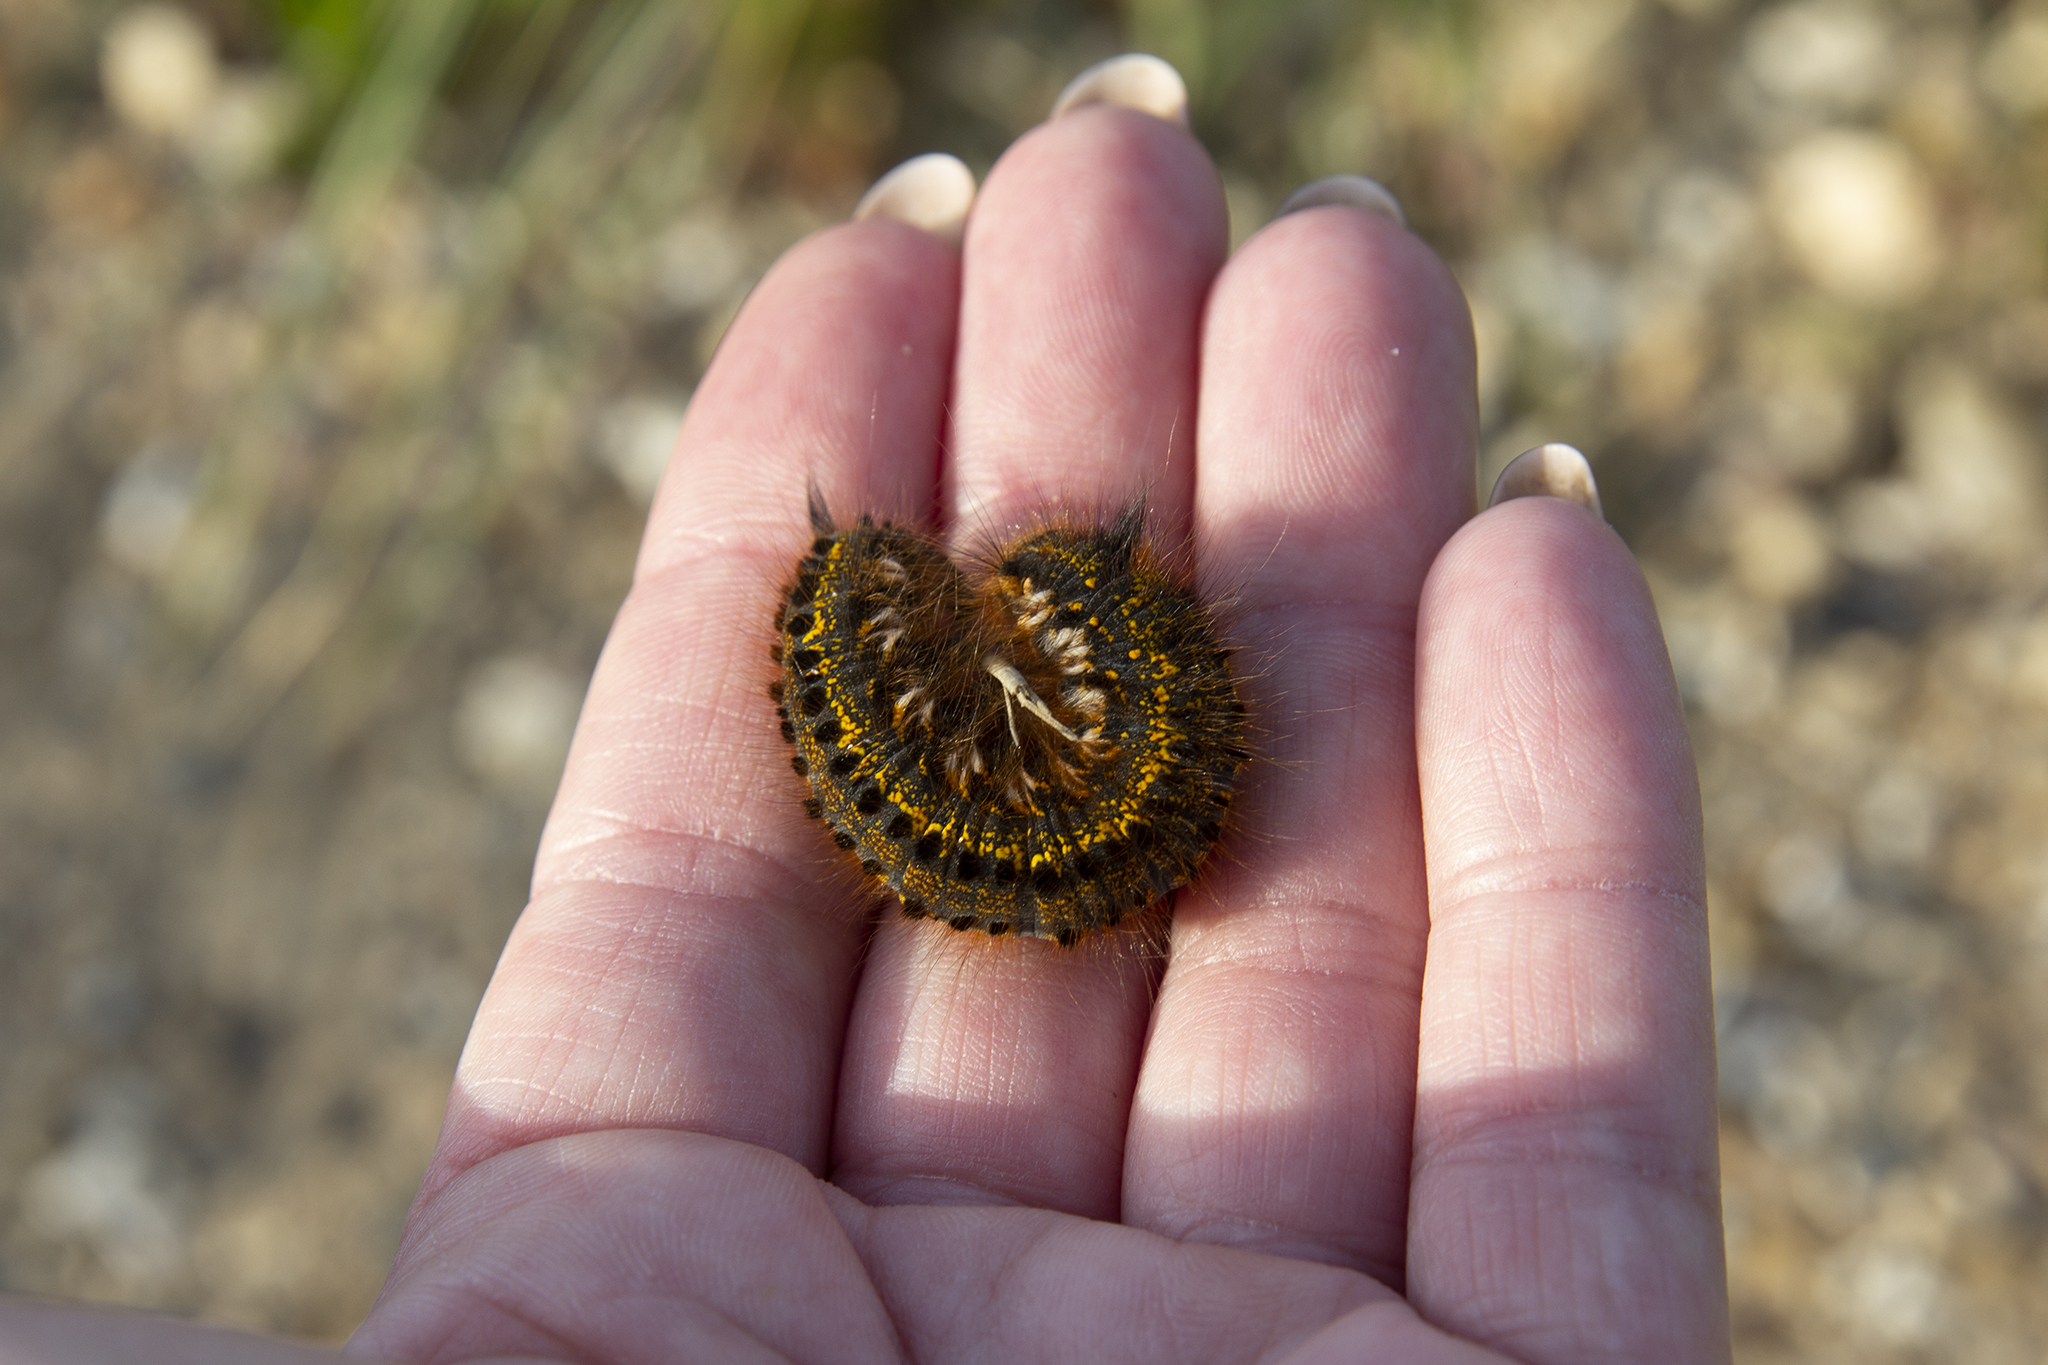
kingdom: Animalia
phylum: Arthropoda
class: Insecta
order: Lepidoptera
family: Lasiocampidae
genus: Euthrix
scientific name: Euthrix potatoria
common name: Drinker
